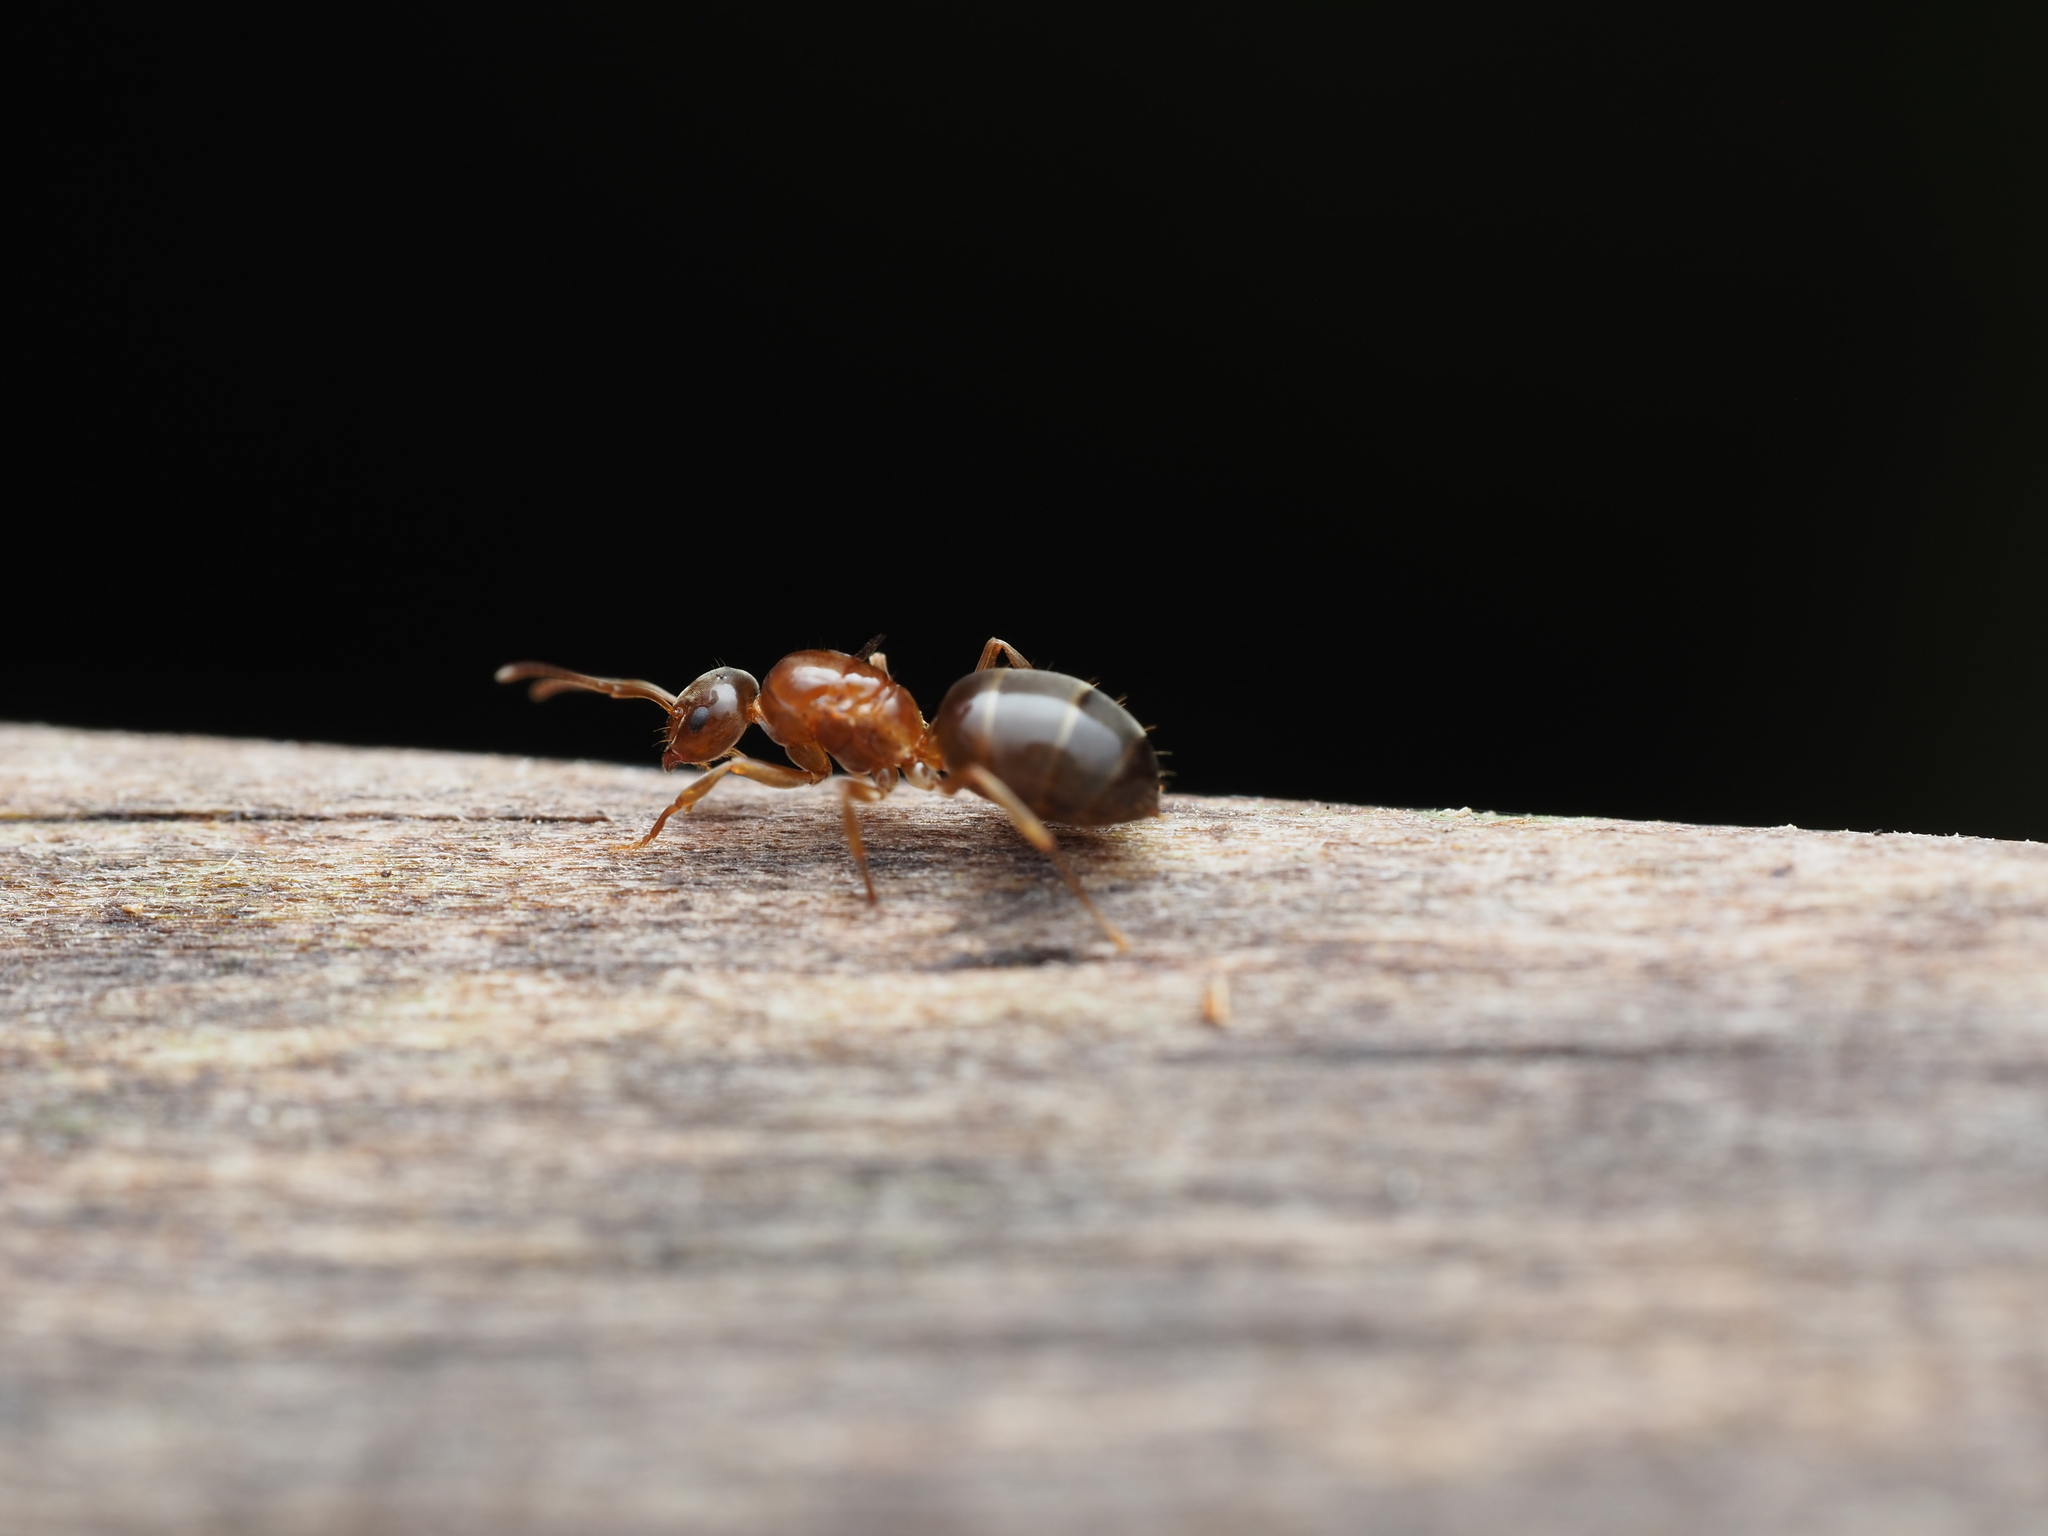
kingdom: Animalia
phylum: Arthropoda
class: Insecta
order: Hymenoptera
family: Formicidae
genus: Prolasius
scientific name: Prolasius advenus
